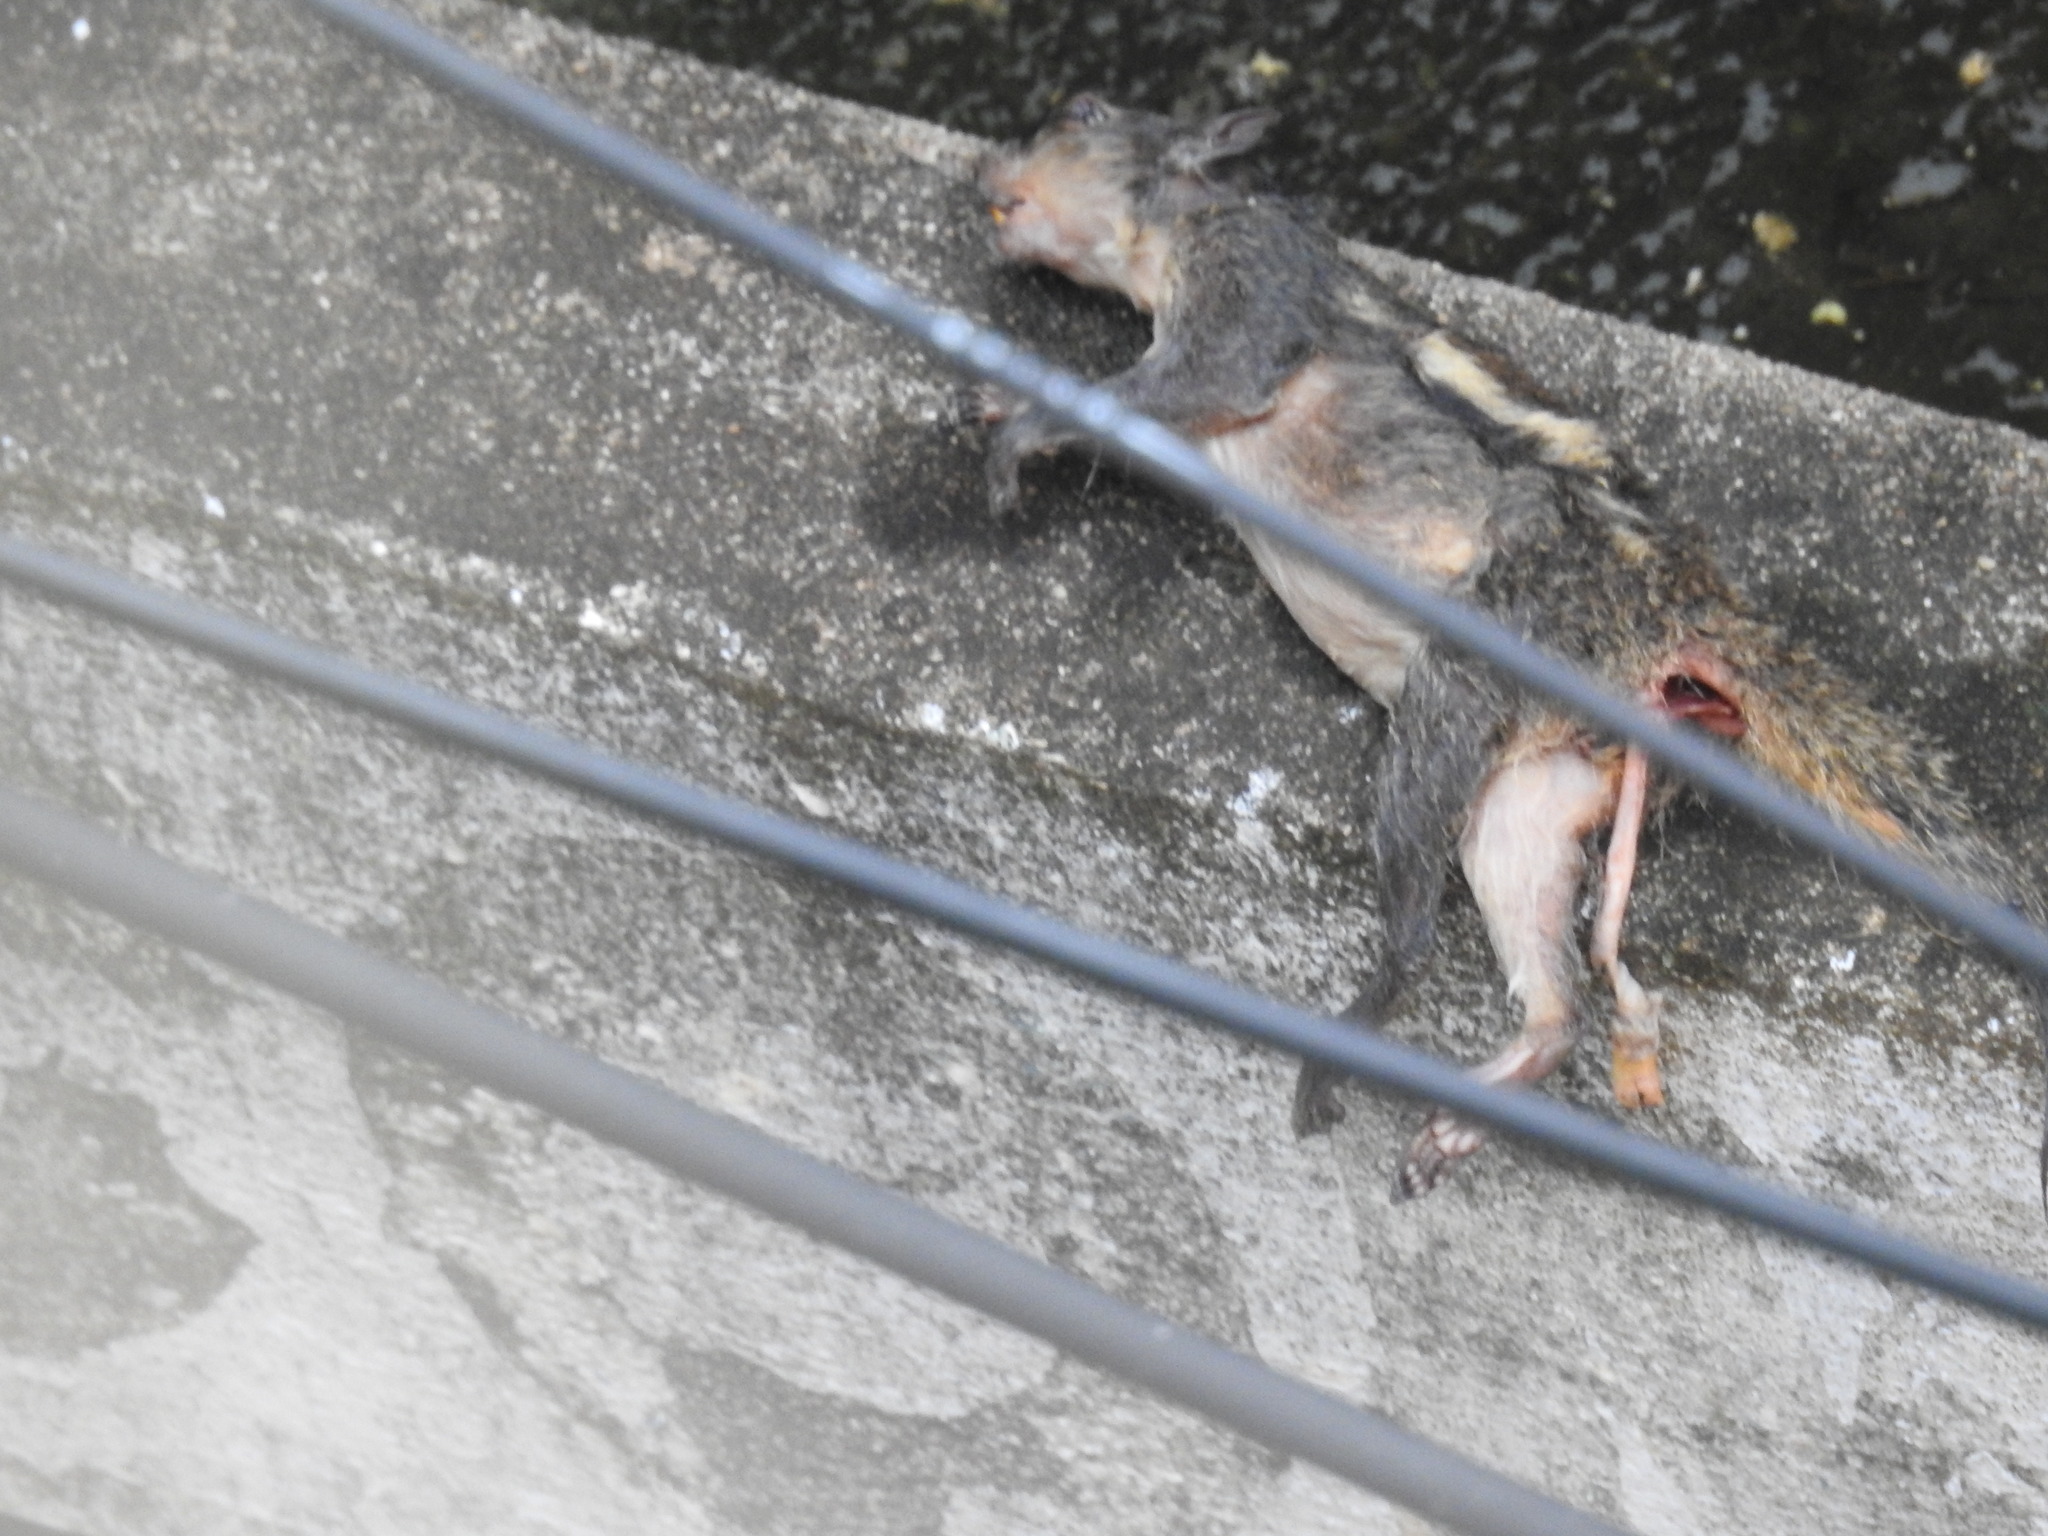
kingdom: Animalia
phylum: Chordata
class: Aves
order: Passeriformes
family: Corvidae
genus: Corvus
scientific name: Corvus splendens
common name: House crow
